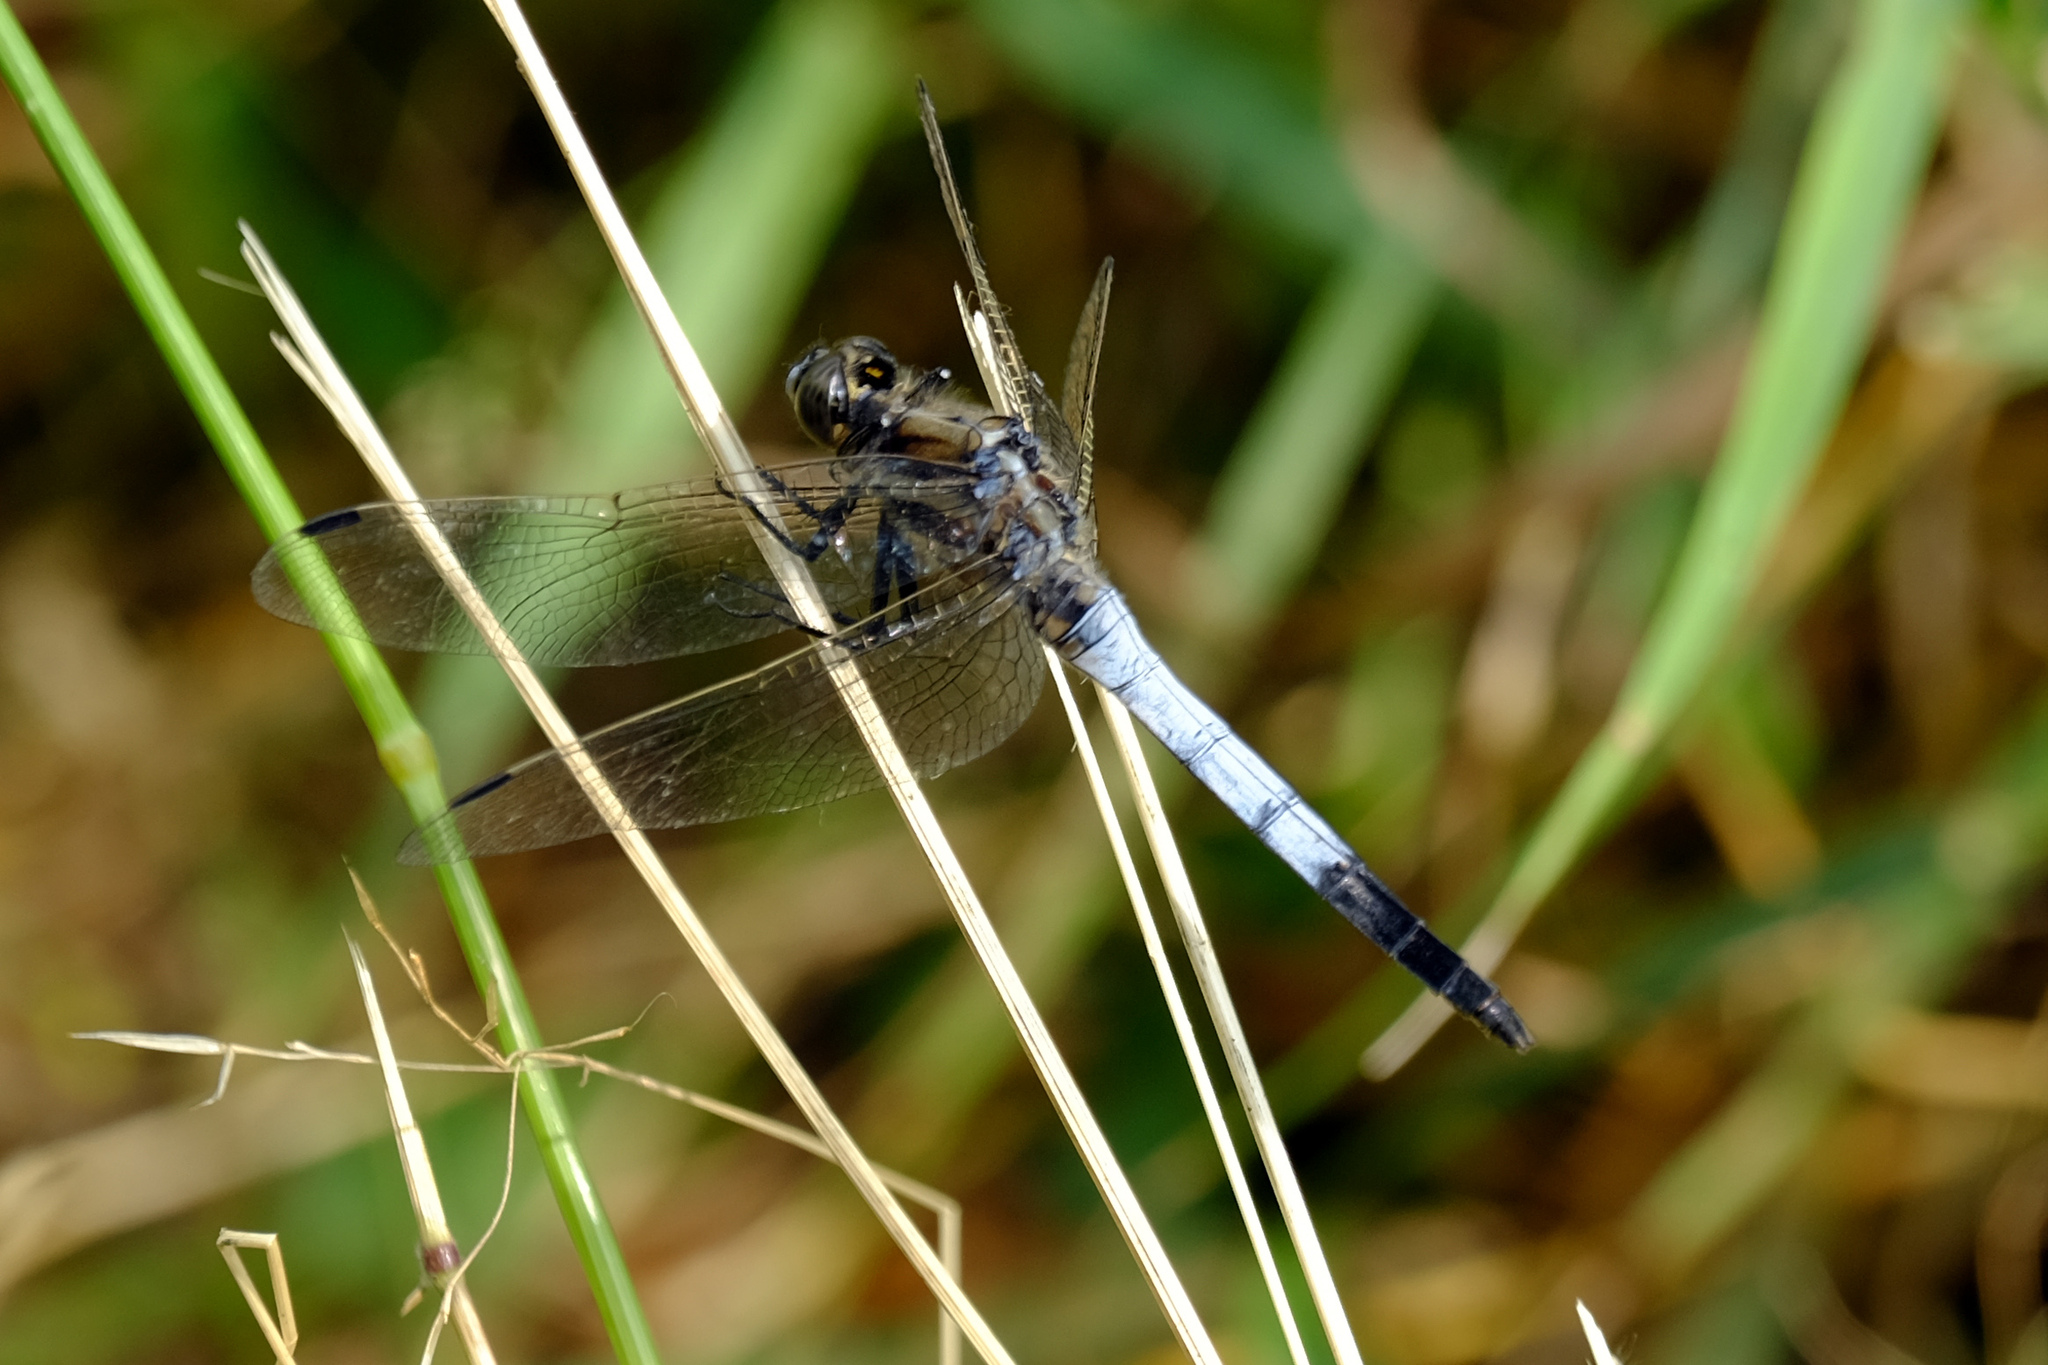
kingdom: Animalia
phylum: Arthropoda
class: Insecta
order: Odonata
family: Libellulidae
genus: Orthetrum
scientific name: Orthetrum albistylum
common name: White-tailed skimmer
